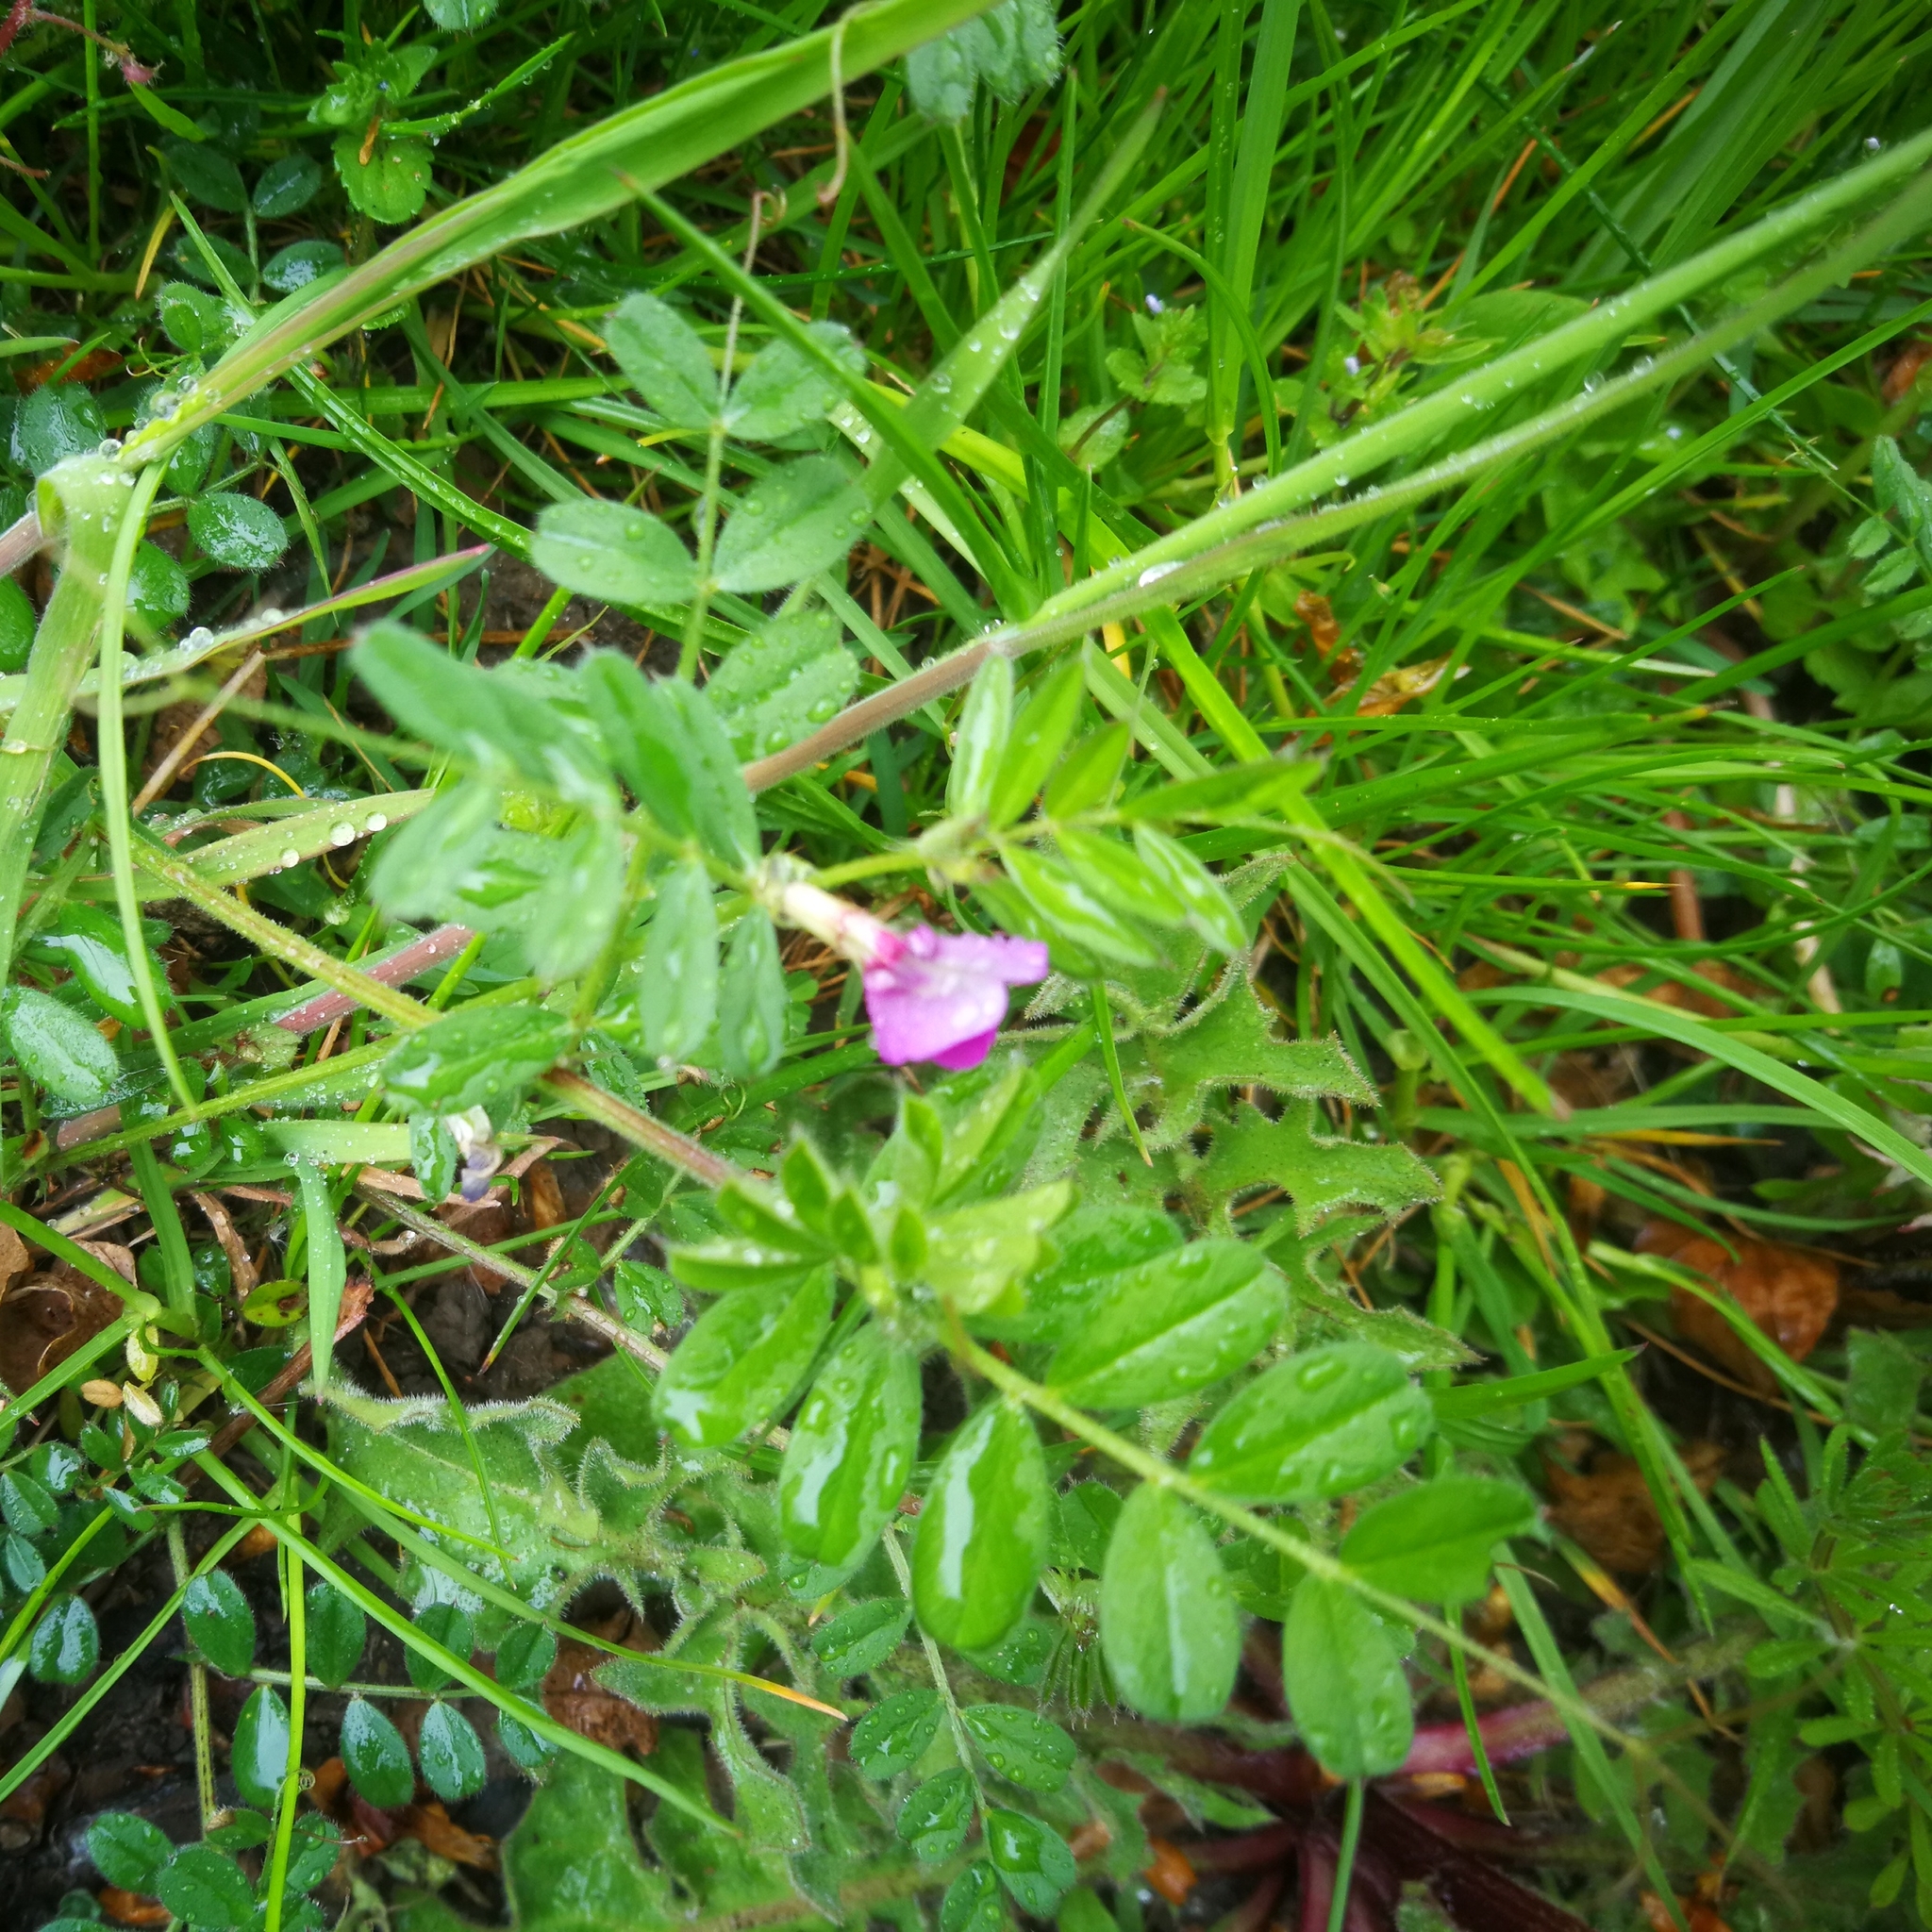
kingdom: Plantae
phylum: Tracheophyta
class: Magnoliopsida
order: Fabales
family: Fabaceae
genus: Vicia
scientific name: Vicia sativa
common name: Garden vetch
